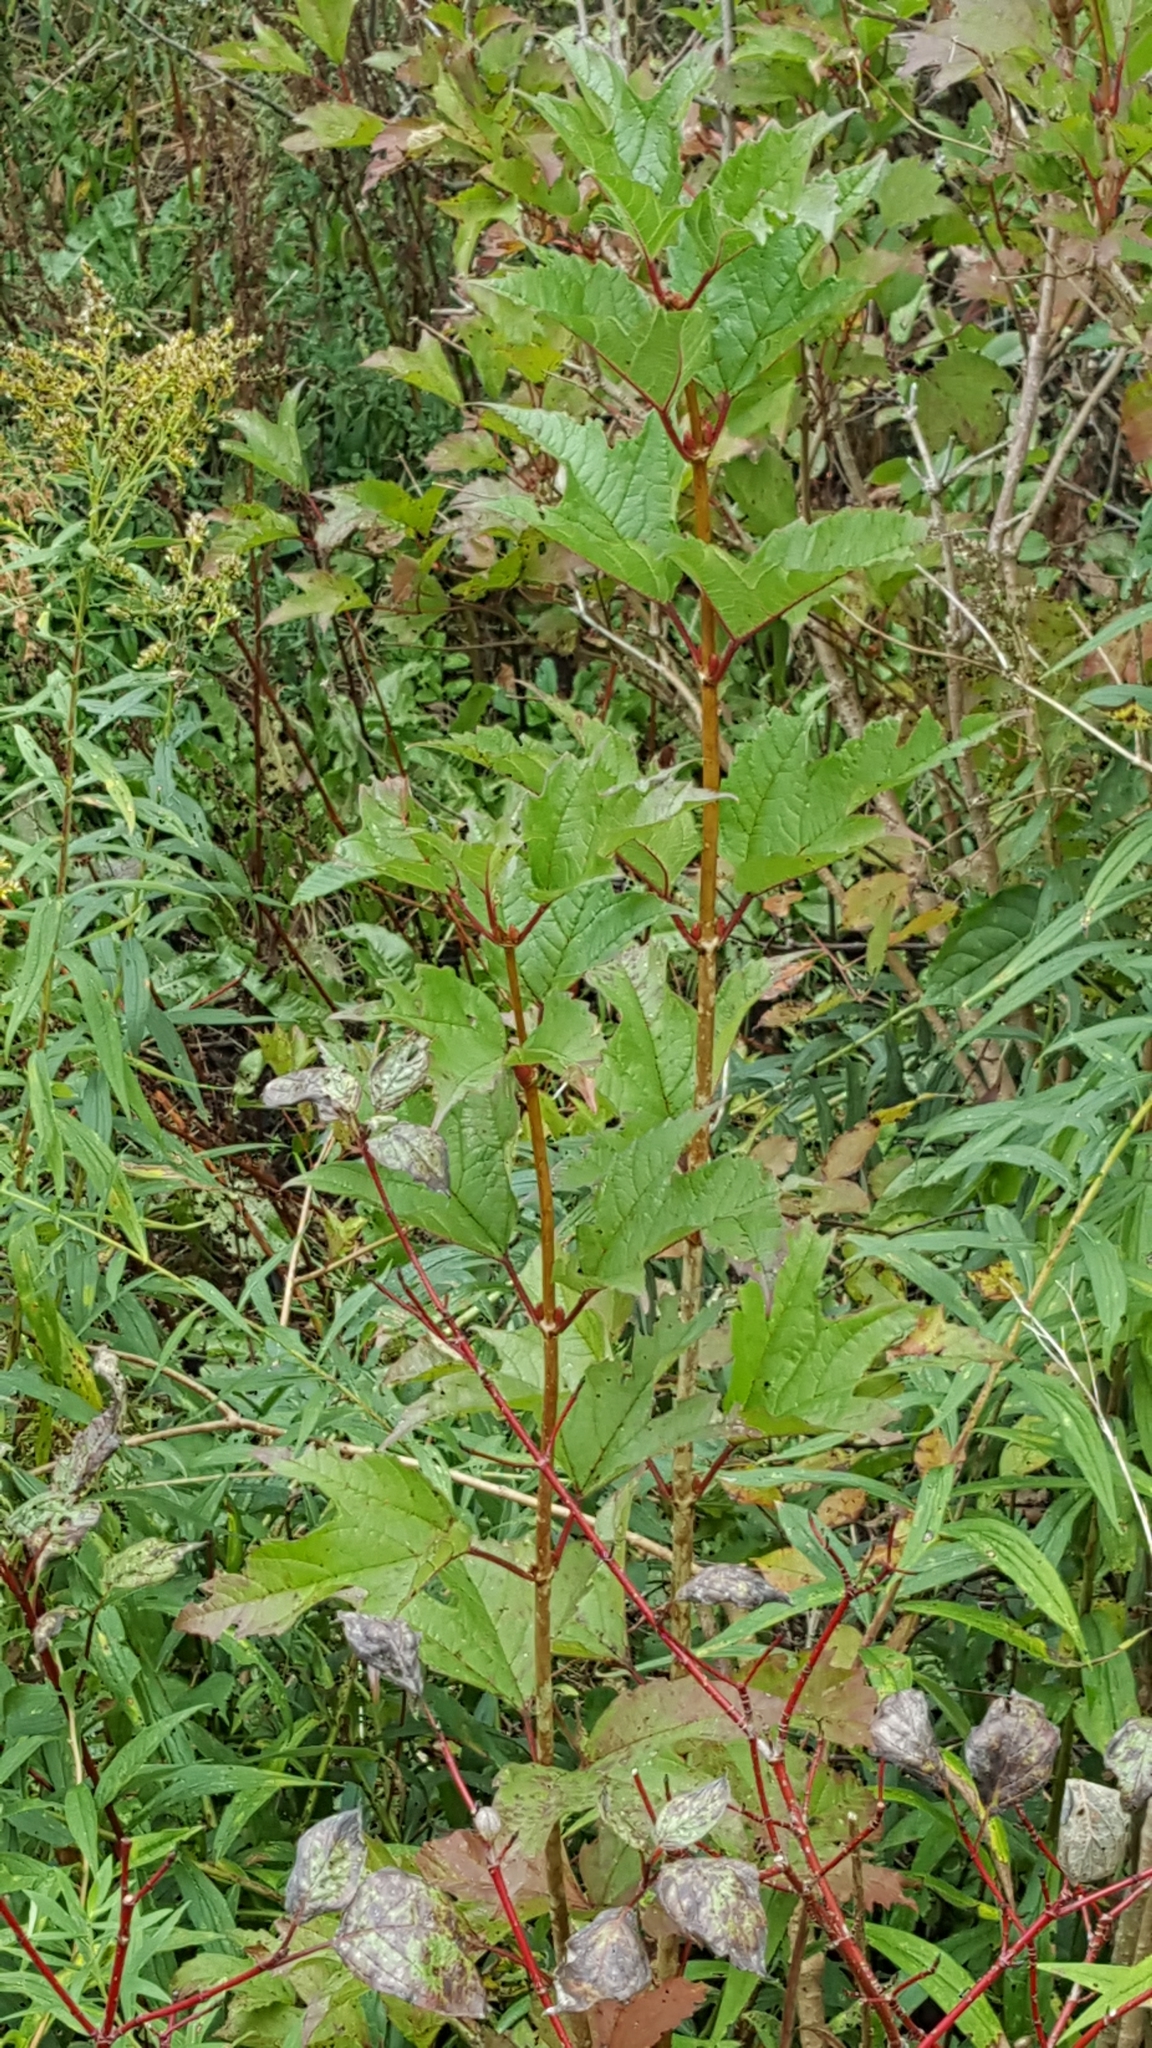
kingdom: Plantae
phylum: Tracheophyta
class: Magnoliopsida
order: Dipsacales
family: Viburnaceae
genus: Viburnum
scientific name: Viburnum opulus
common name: Guelder-rose
